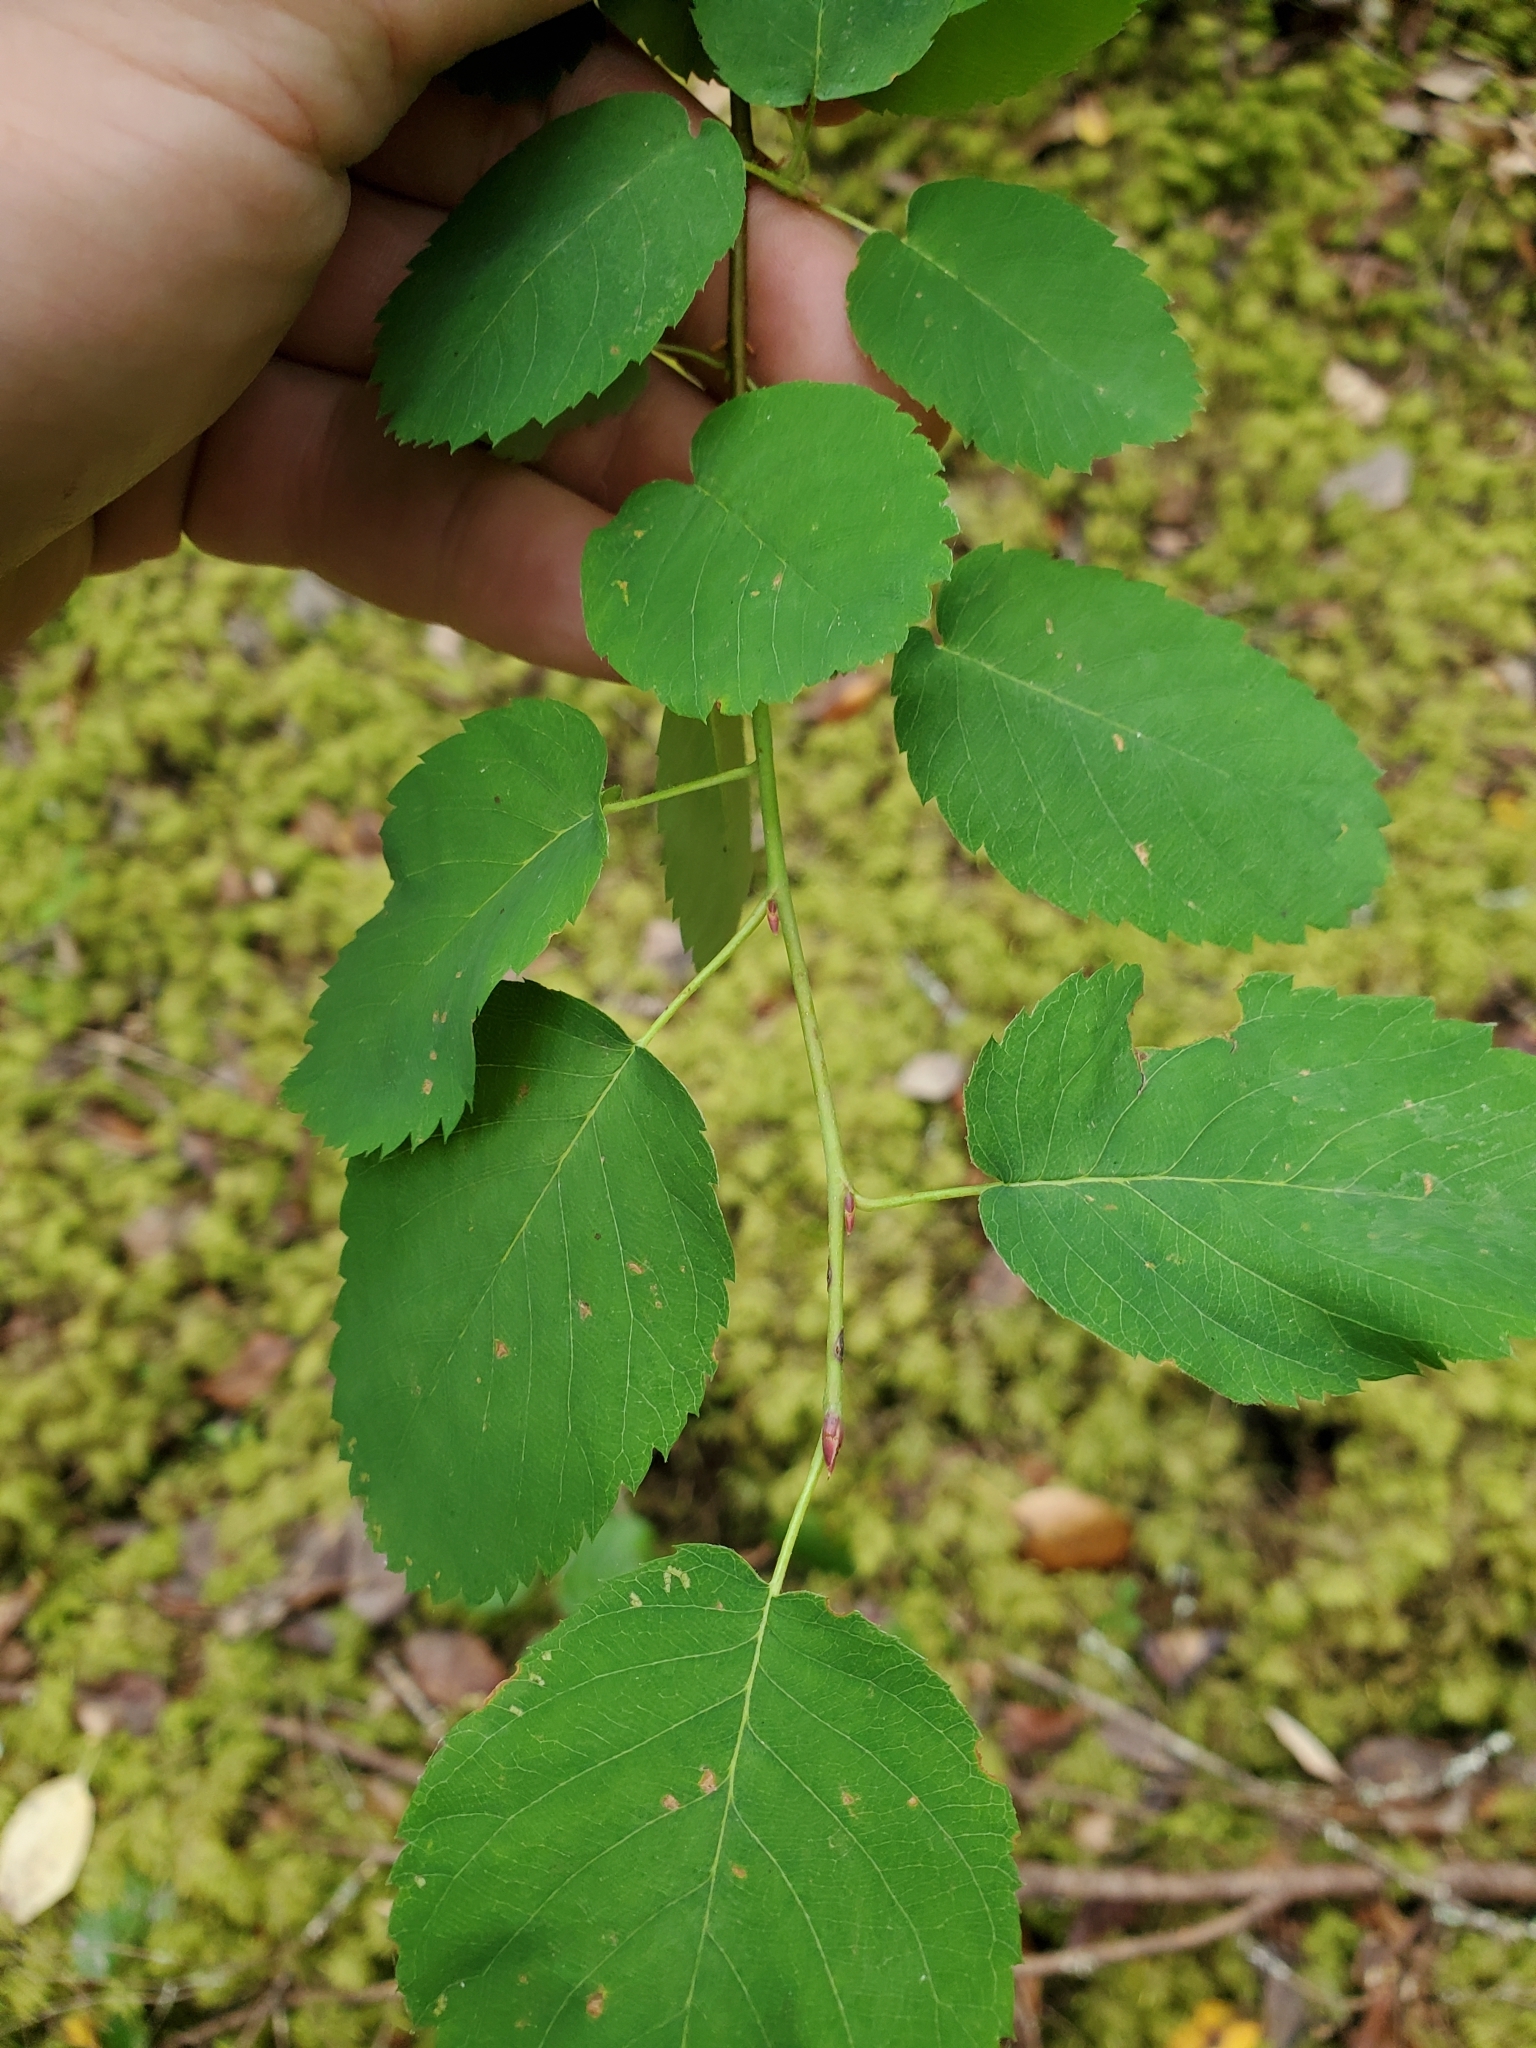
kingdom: Plantae
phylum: Tracheophyta
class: Magnoliopsida
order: Rosales
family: Rosaceae
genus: Amelanchier
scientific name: Amelanchier alnifolia
